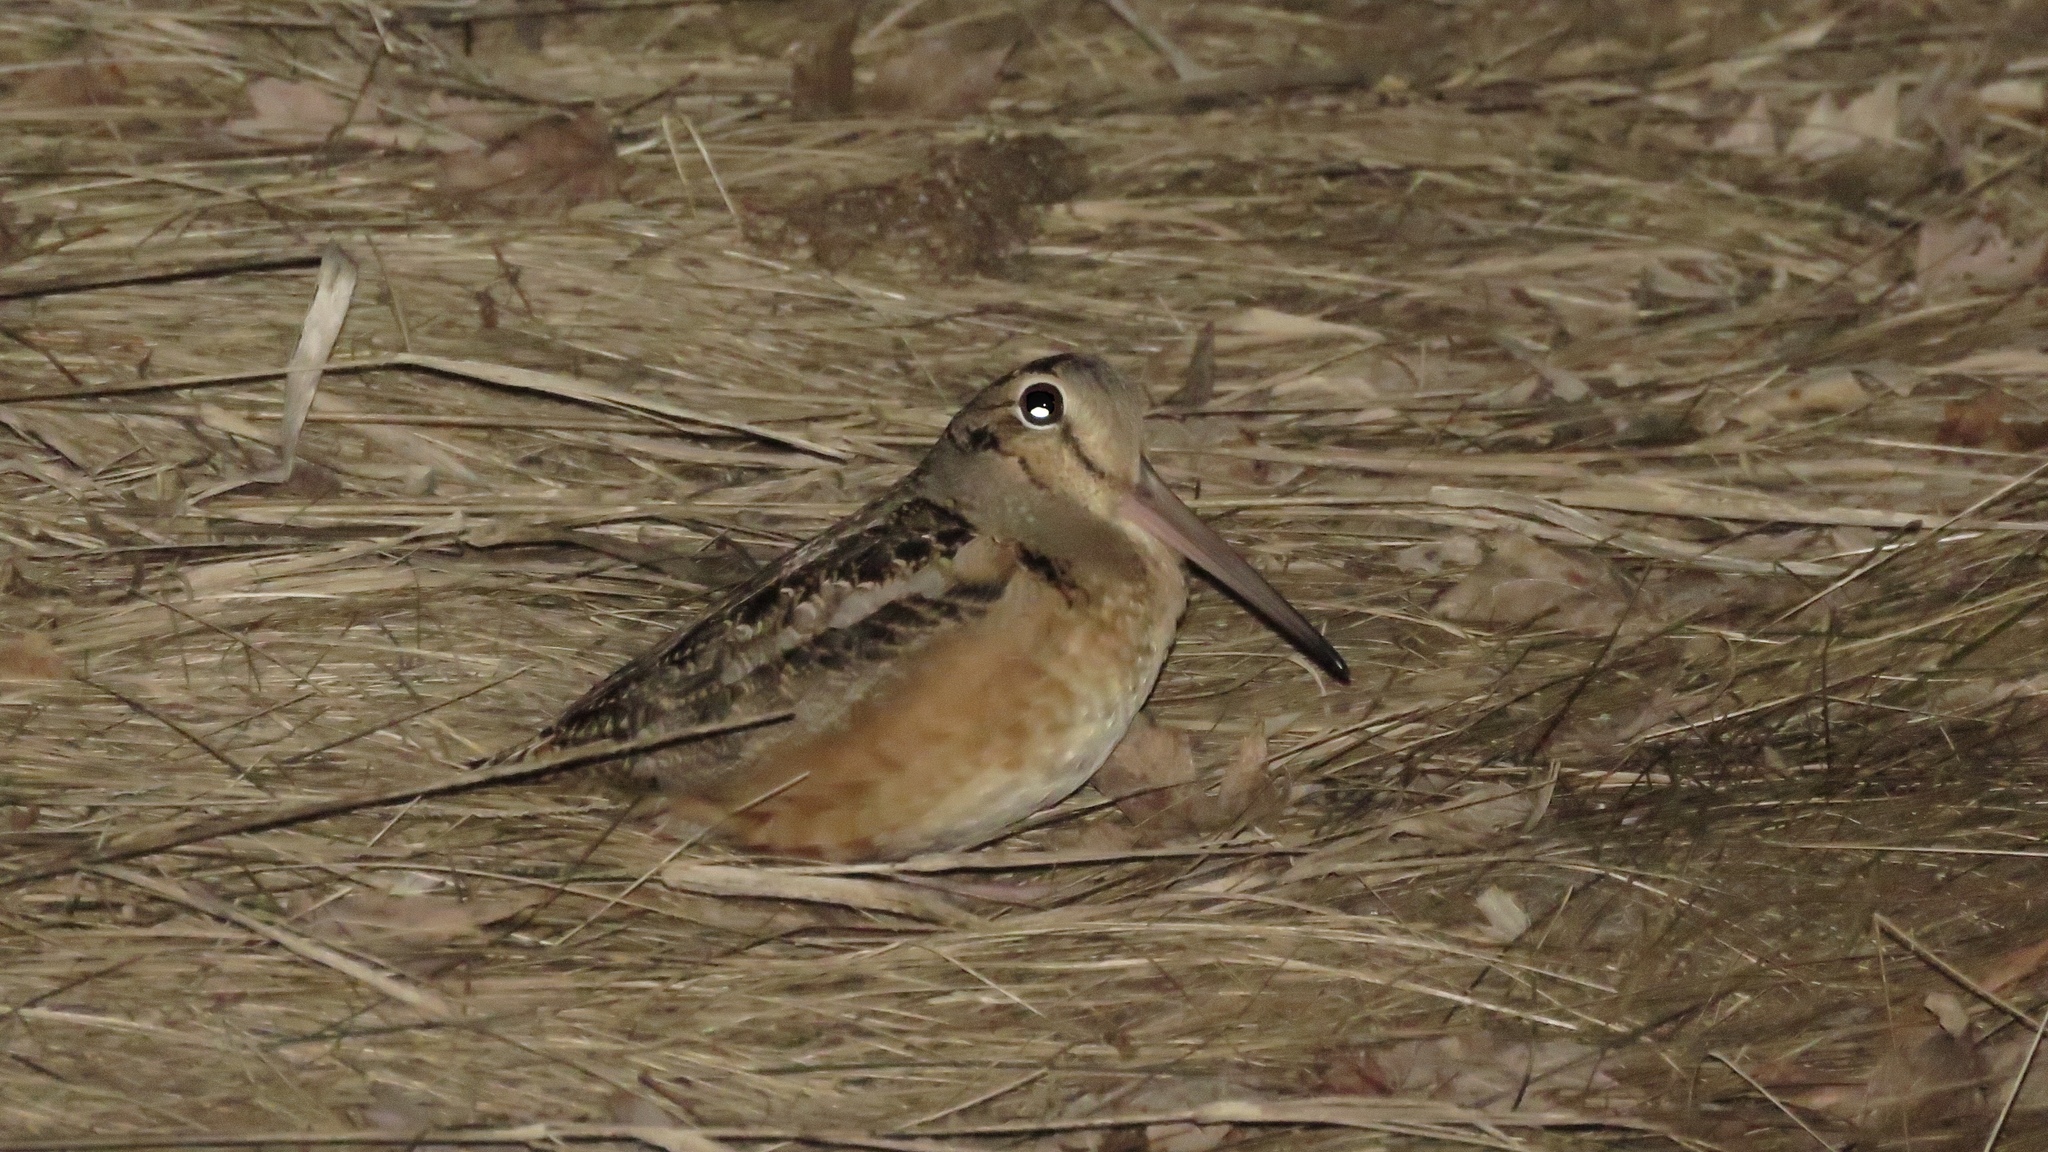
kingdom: Animalia
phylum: Chordata
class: Aves
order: Charadriiformes
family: Scolopacidae
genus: Scolopax
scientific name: Scolopax minor
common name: American woodcock
